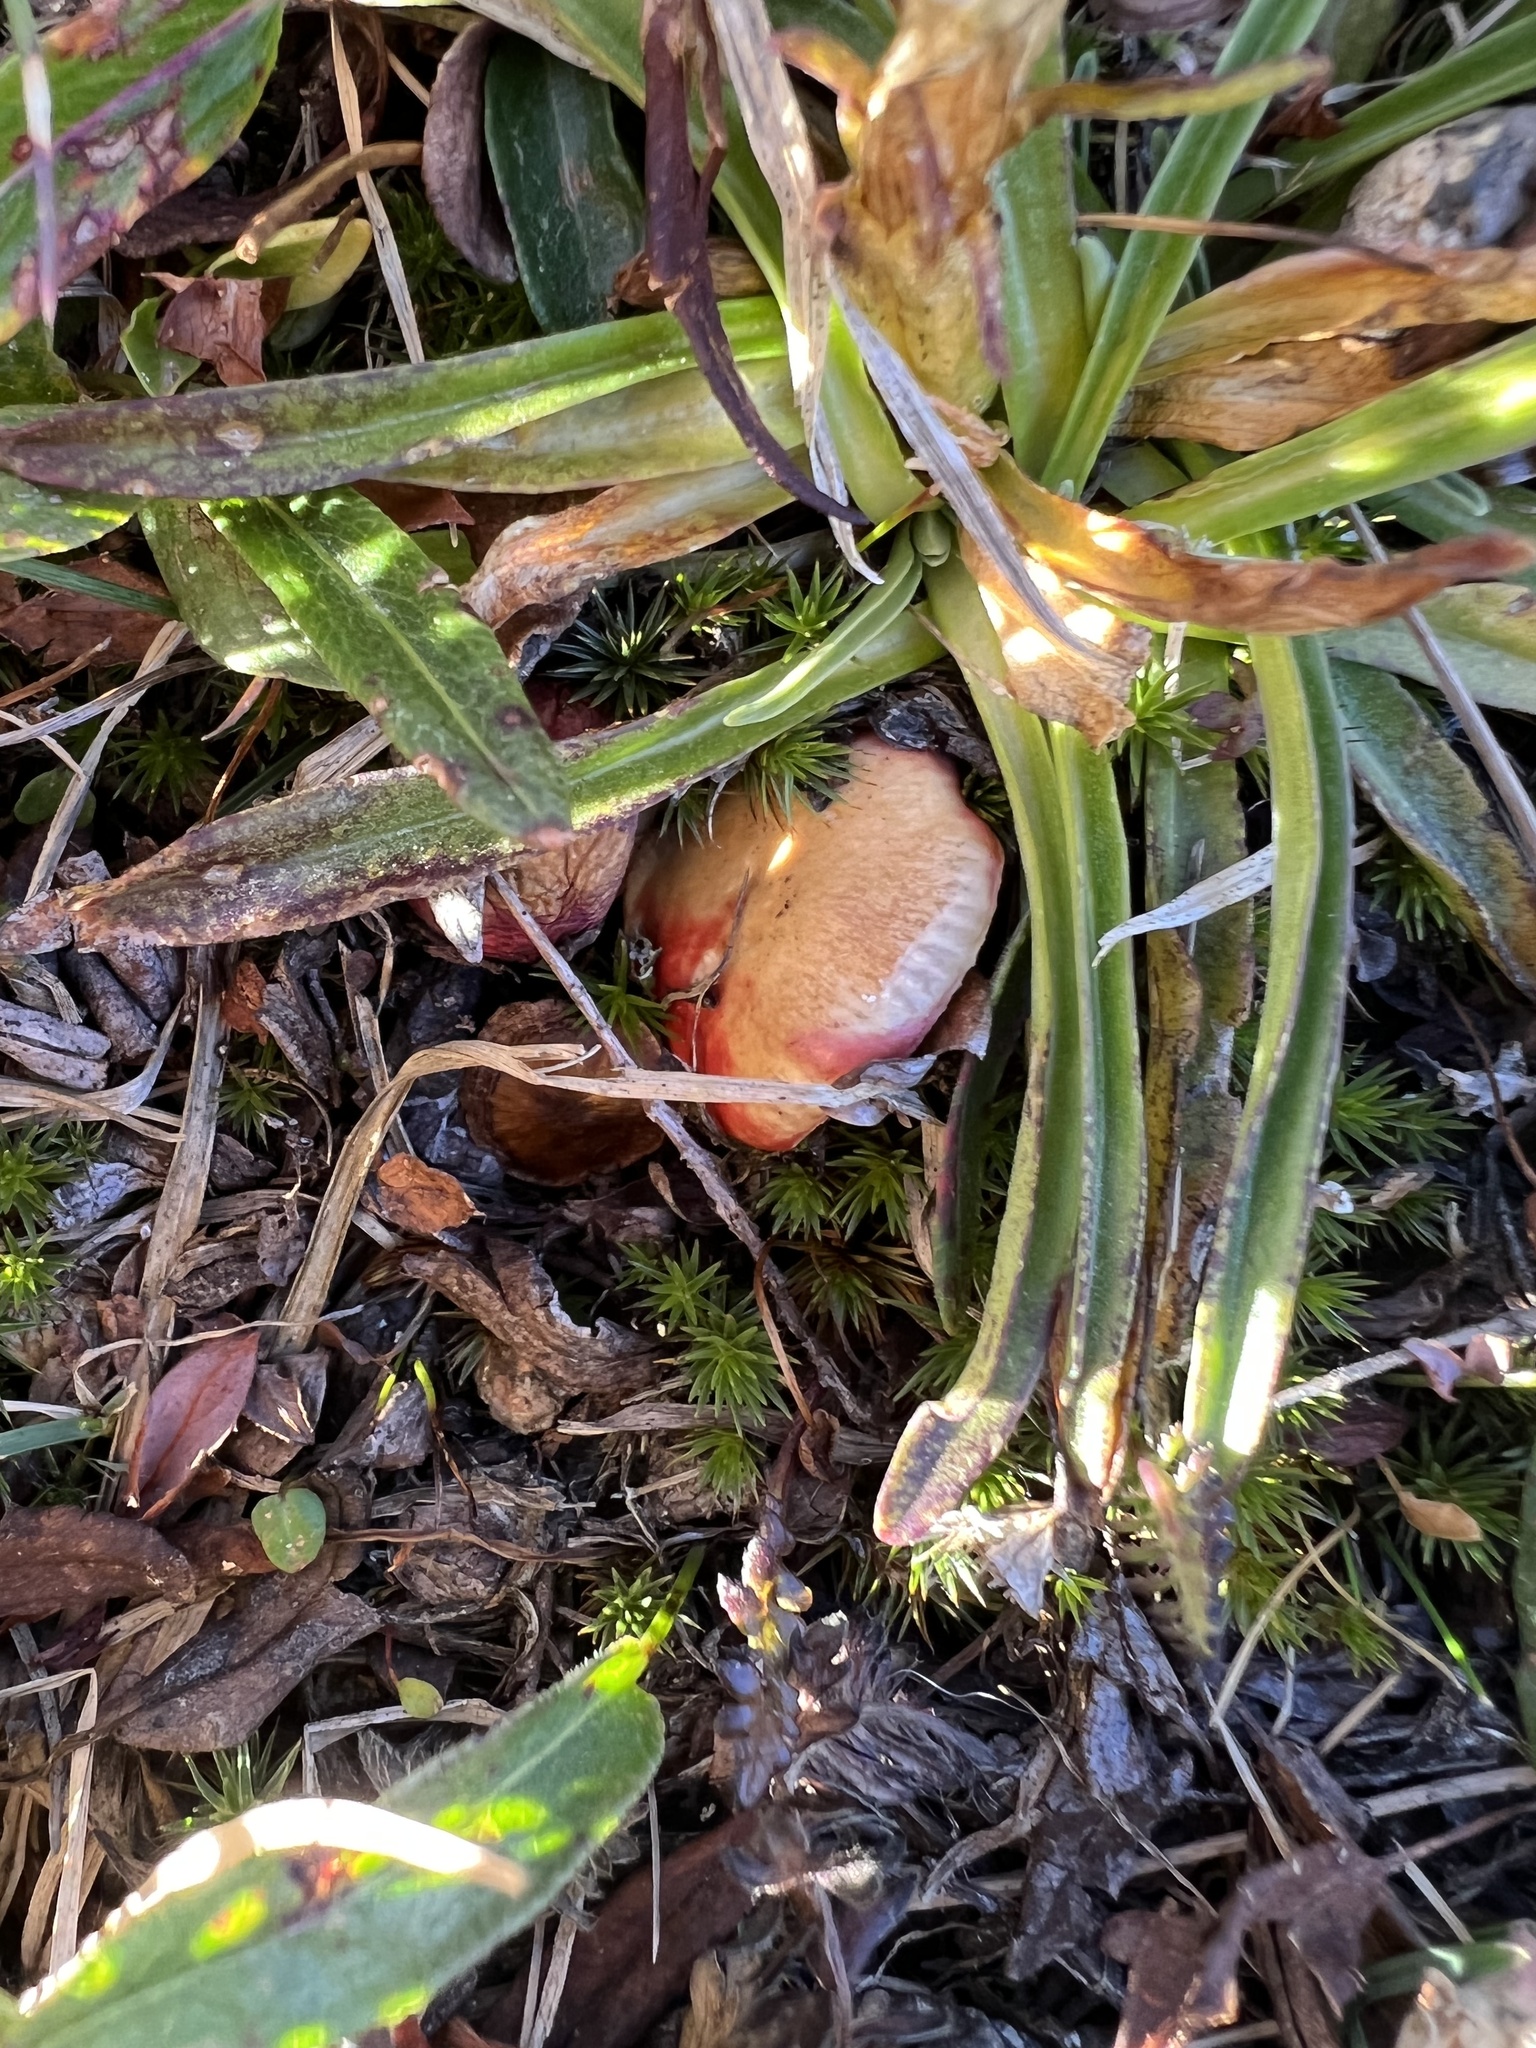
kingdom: Fungi
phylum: Basidiomycota
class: Agaricomycetes
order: Boletales
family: Gomphidiaceae
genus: Gomphidius
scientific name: Gomphidius subroseus
